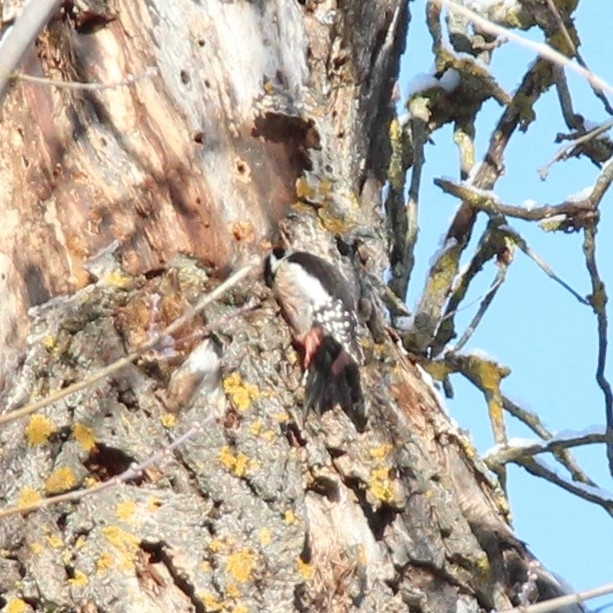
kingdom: Animalia
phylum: Chordata
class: Aves
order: Piciformes
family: Picidae
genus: Dendrocoptes
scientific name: Dendrocoptes medius
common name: Middle spotted woodpecker
